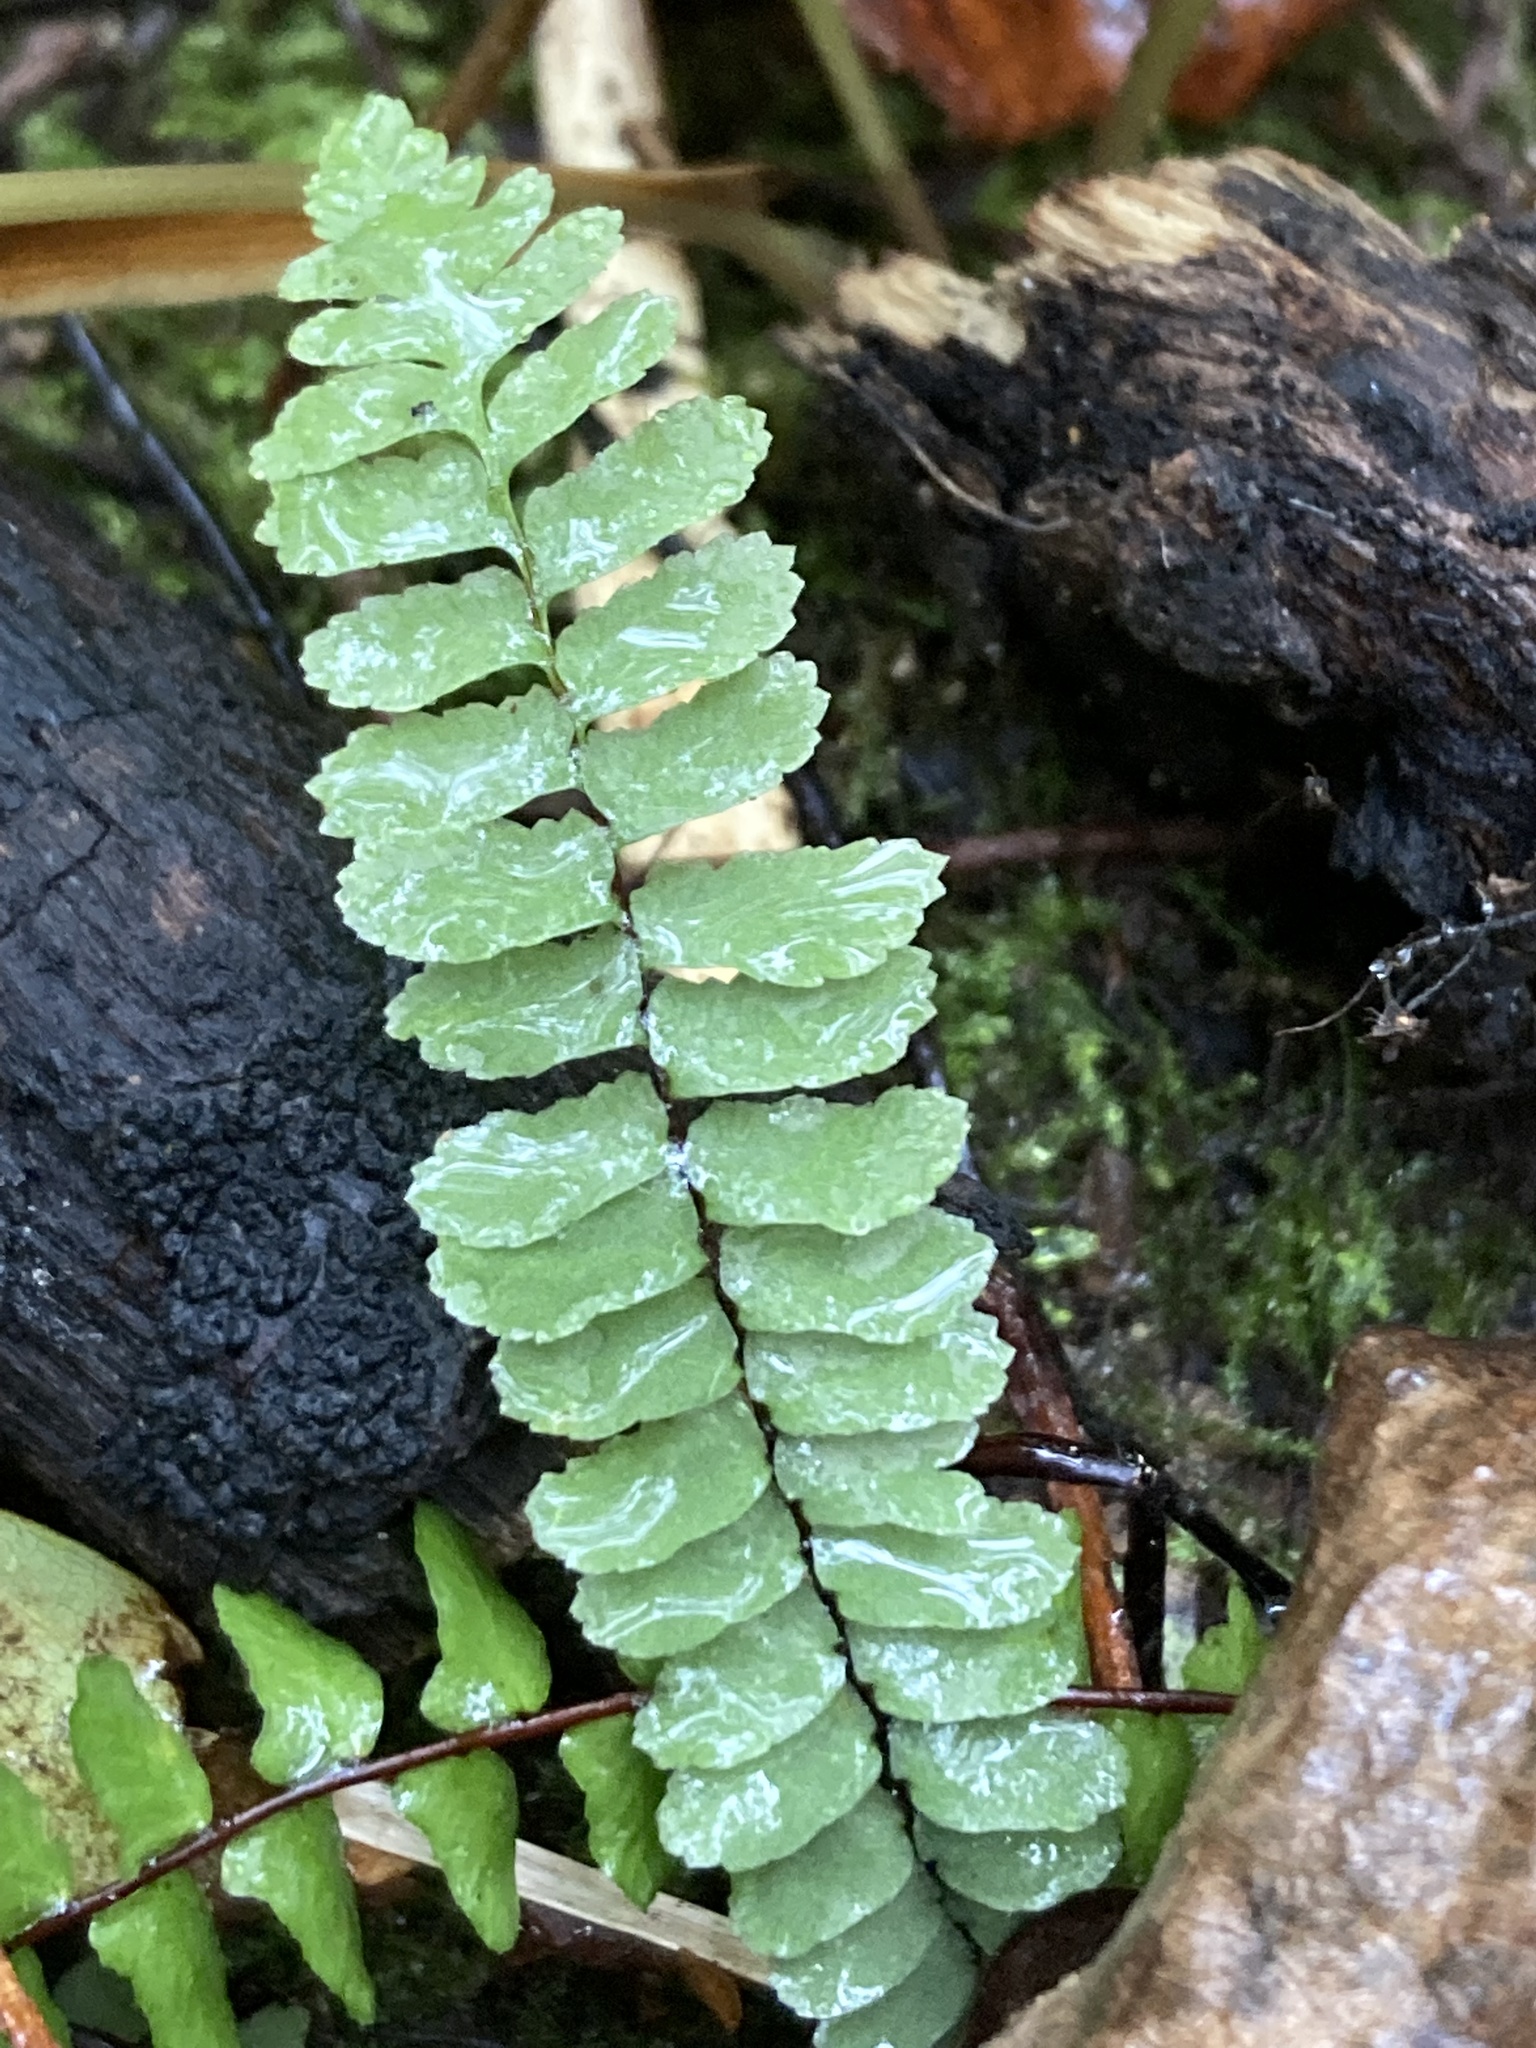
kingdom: Plantae
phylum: Tracheophyta
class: Polypodiopsida
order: Polypodiales
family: Aspleniaceae
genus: Asplenium
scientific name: Asplenium platyneuron
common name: Ebony spleenwort
